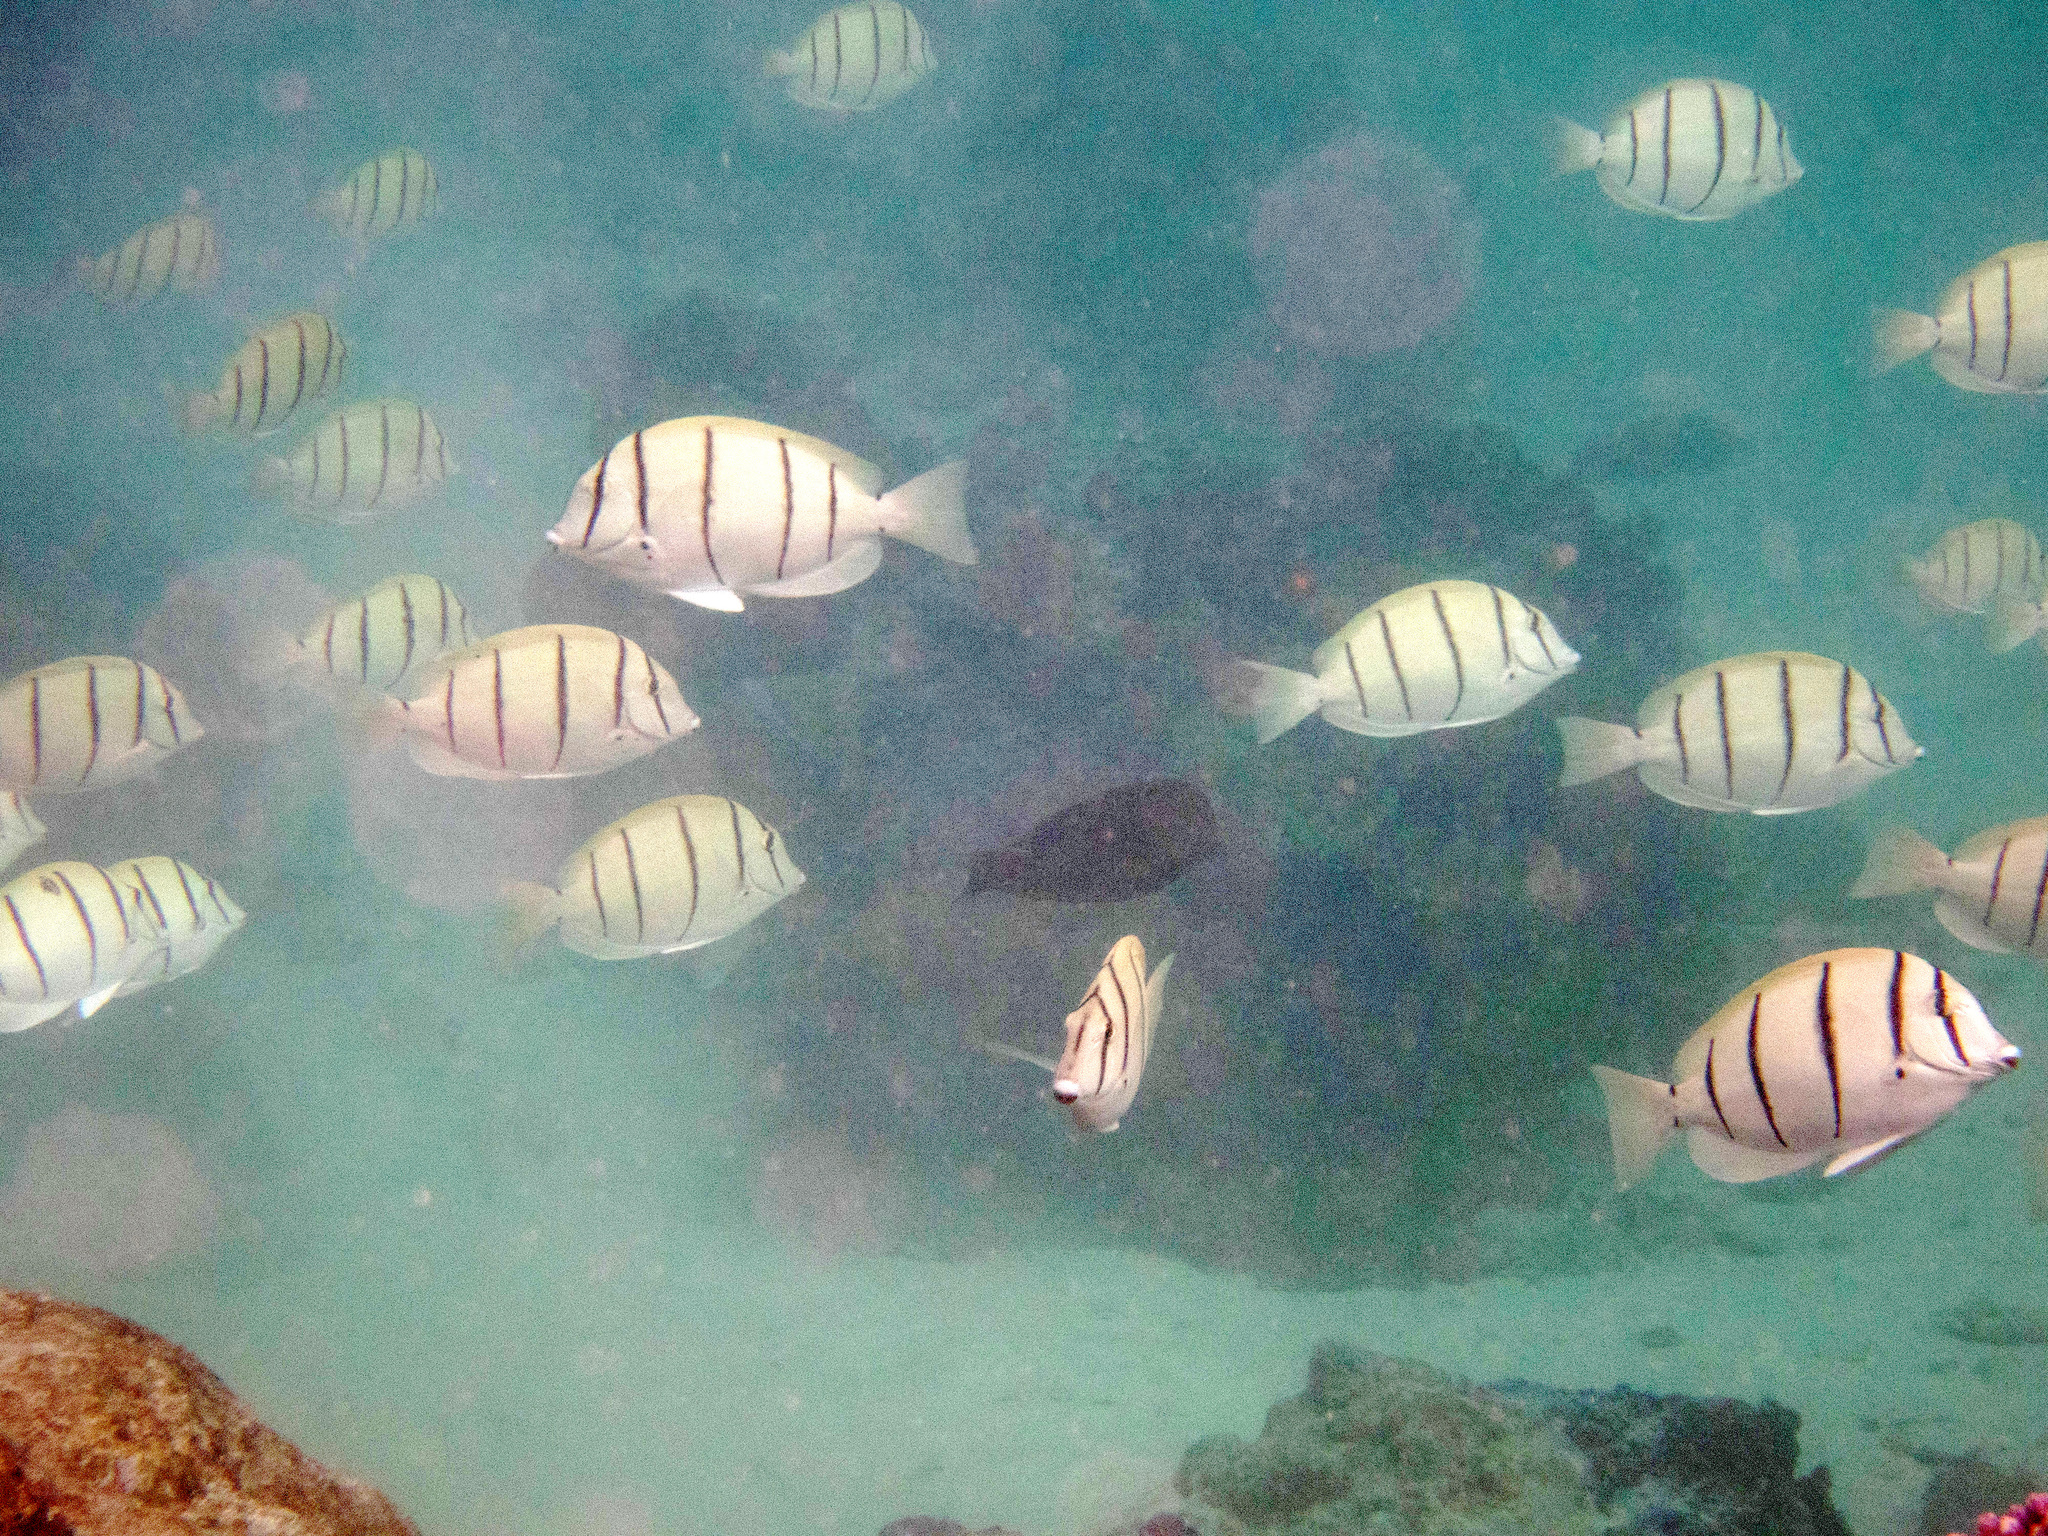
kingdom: Animalia
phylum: Chordata
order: Perciformes
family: Acanthuridae
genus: Acanthurus
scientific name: Acanthurus triostegus
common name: Convict surgeonfish
